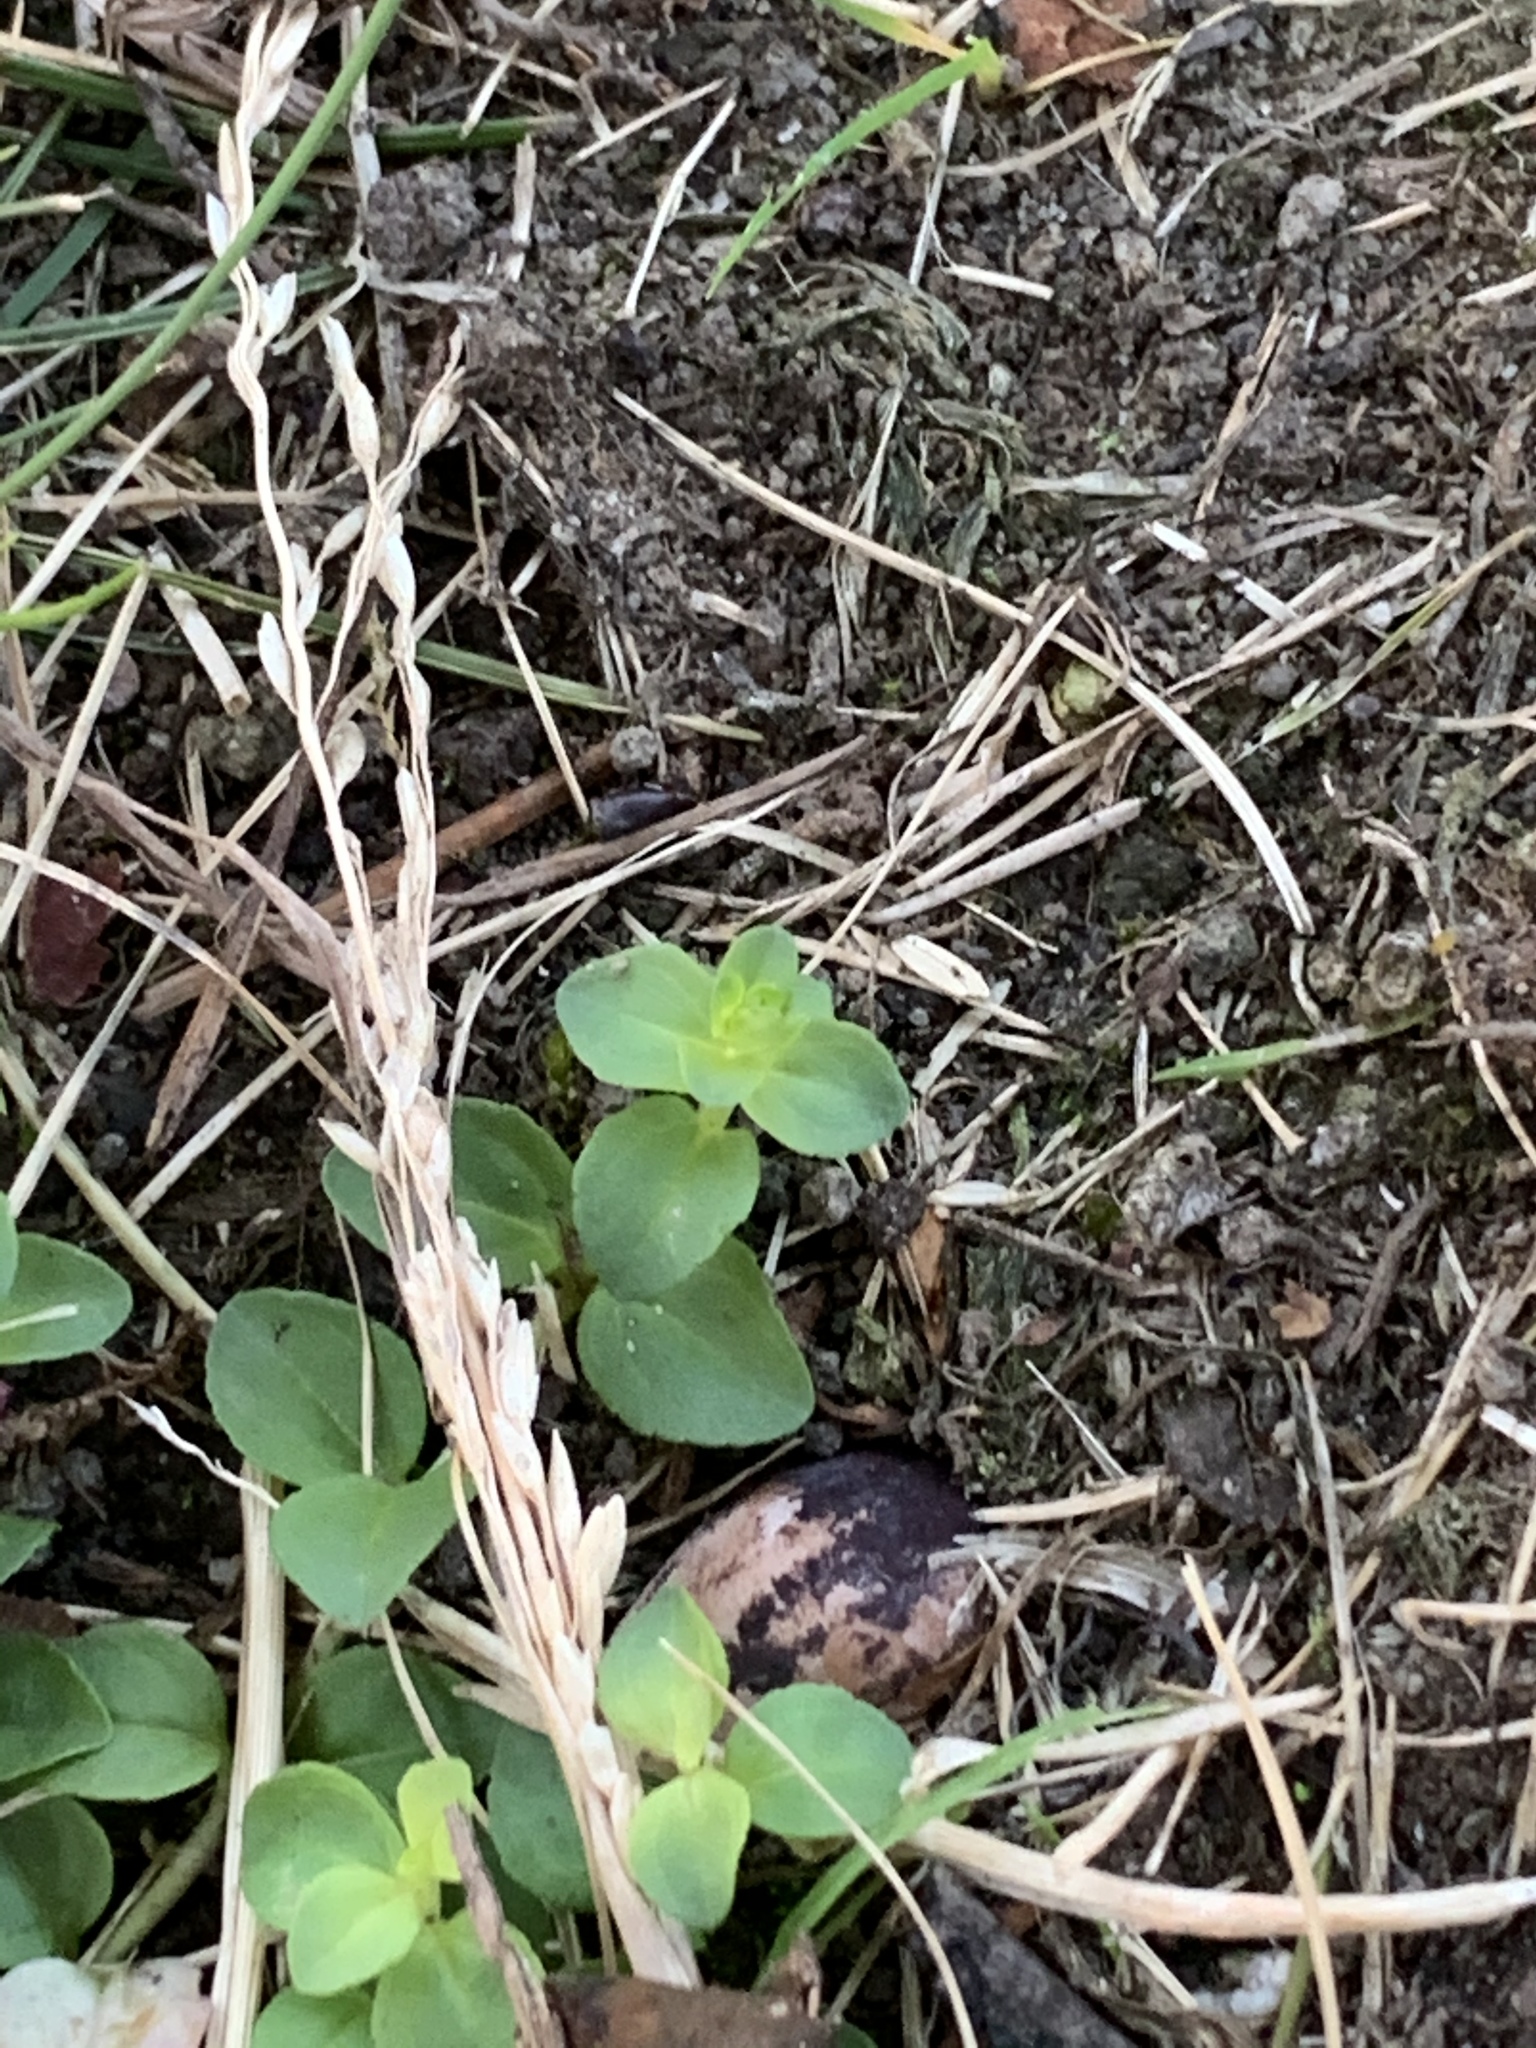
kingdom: Plantae
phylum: Tracheophyta
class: Magnoliopsida
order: Ericales
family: Primulaceae
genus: Lysimachia
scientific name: Lysimachia arvensis
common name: Scarlet pimpernel
